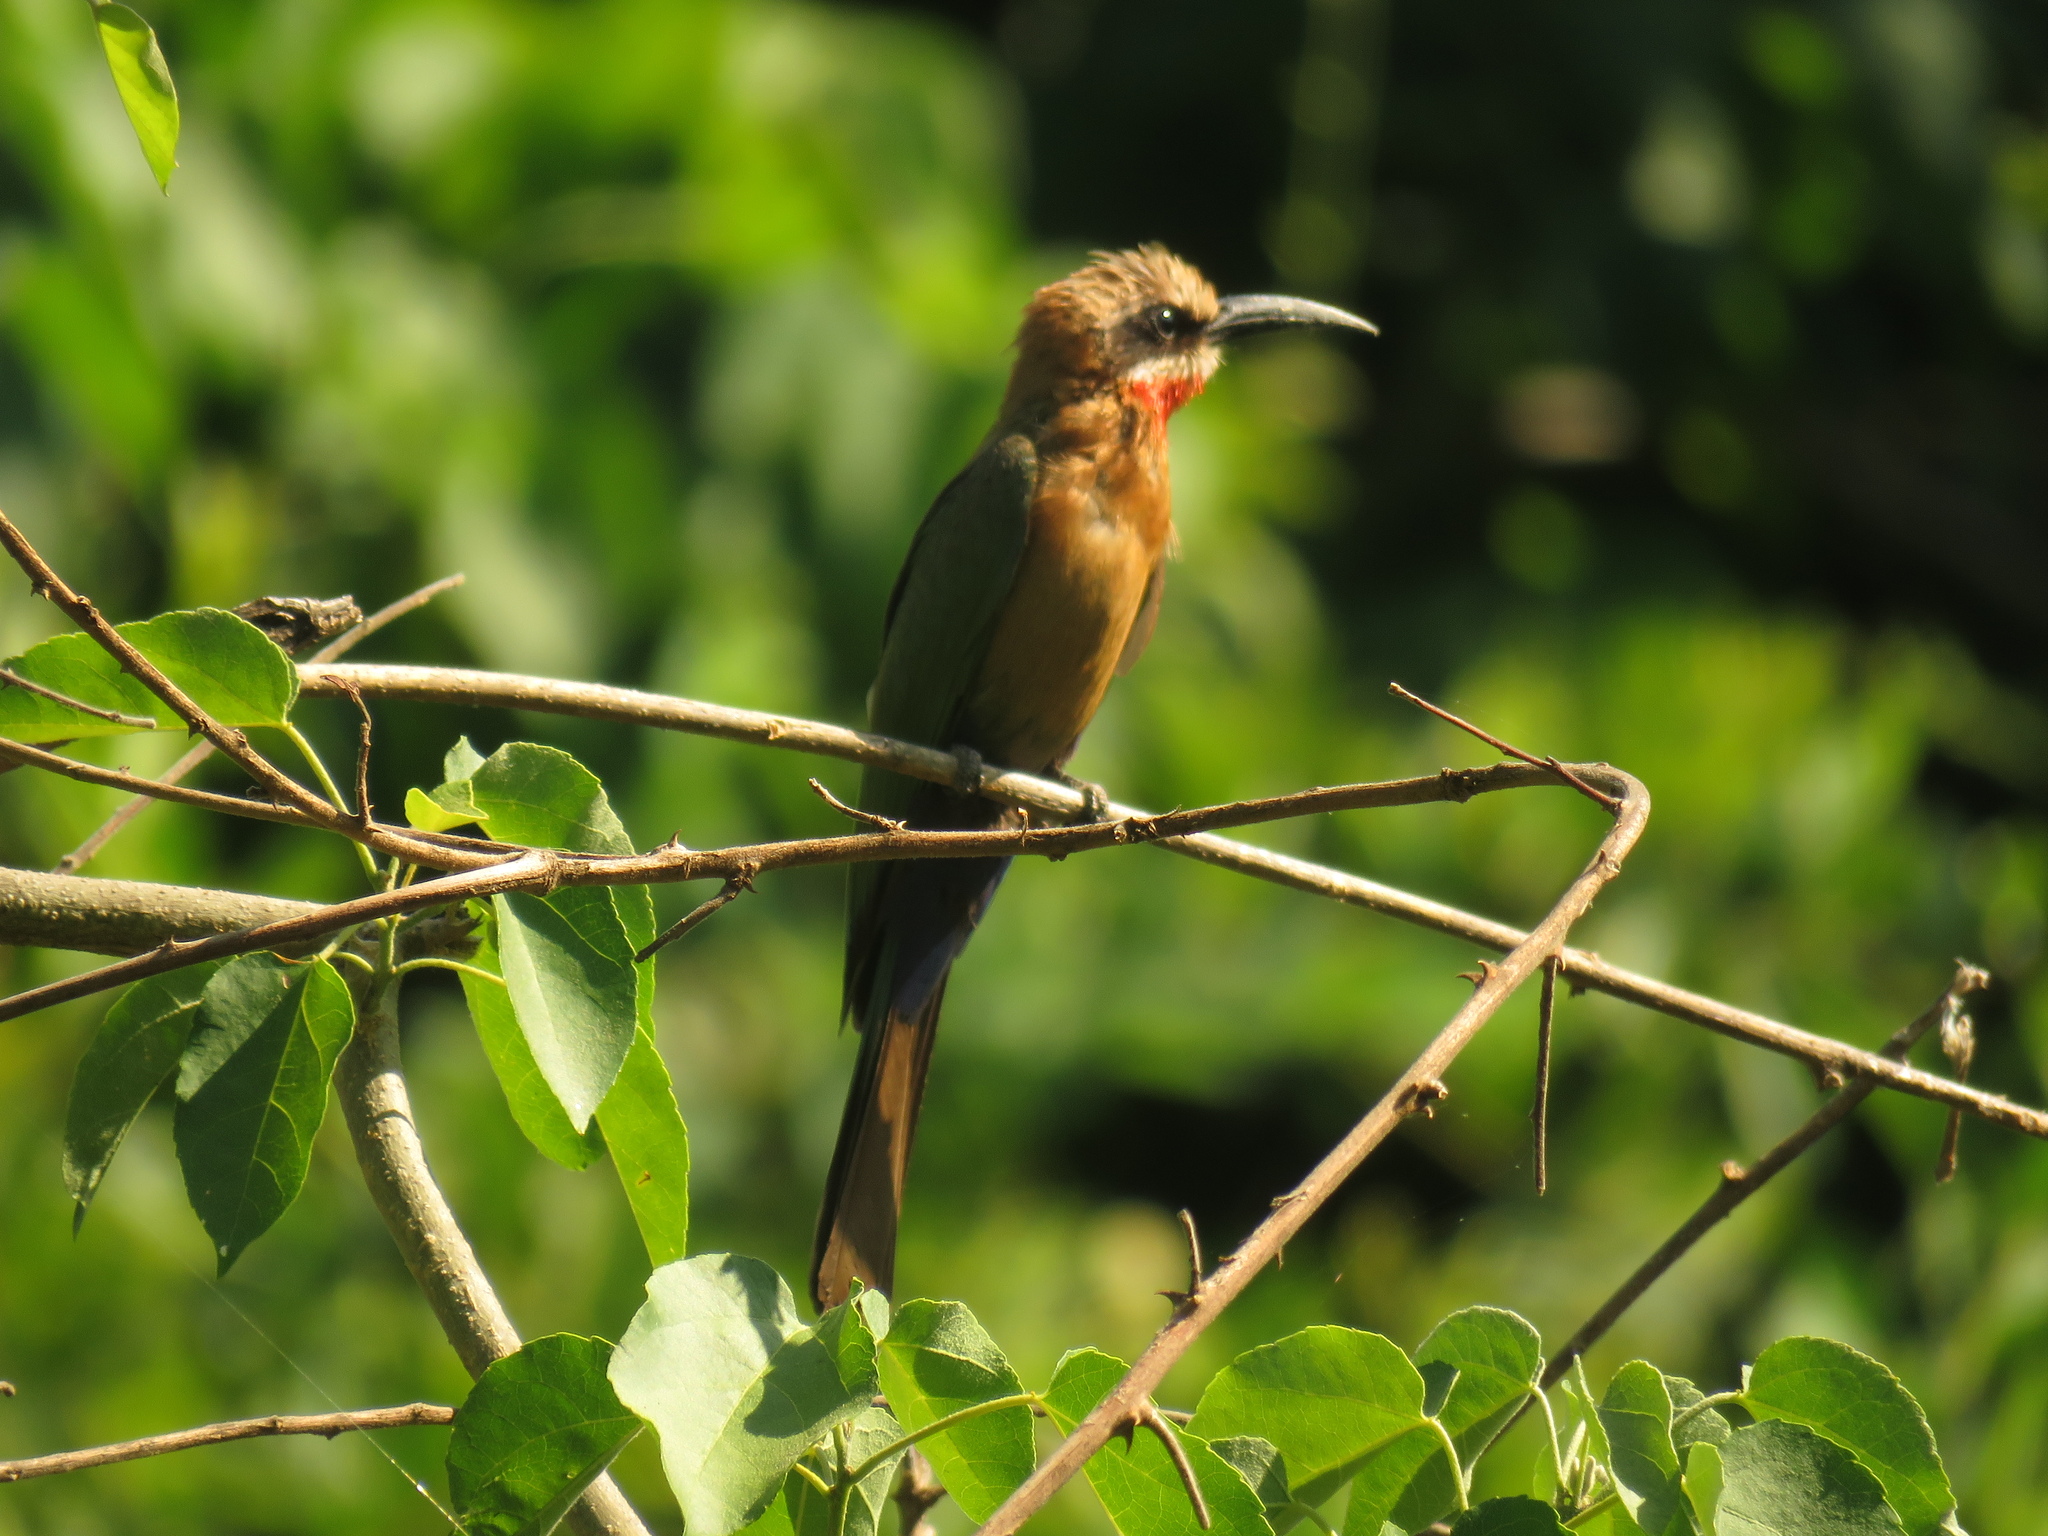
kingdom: Animalia
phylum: Chordata
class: Aves
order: Coraciiformes
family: Meropidae
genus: Merops
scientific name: Merops bullockoides
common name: White-fronted bee-eater
